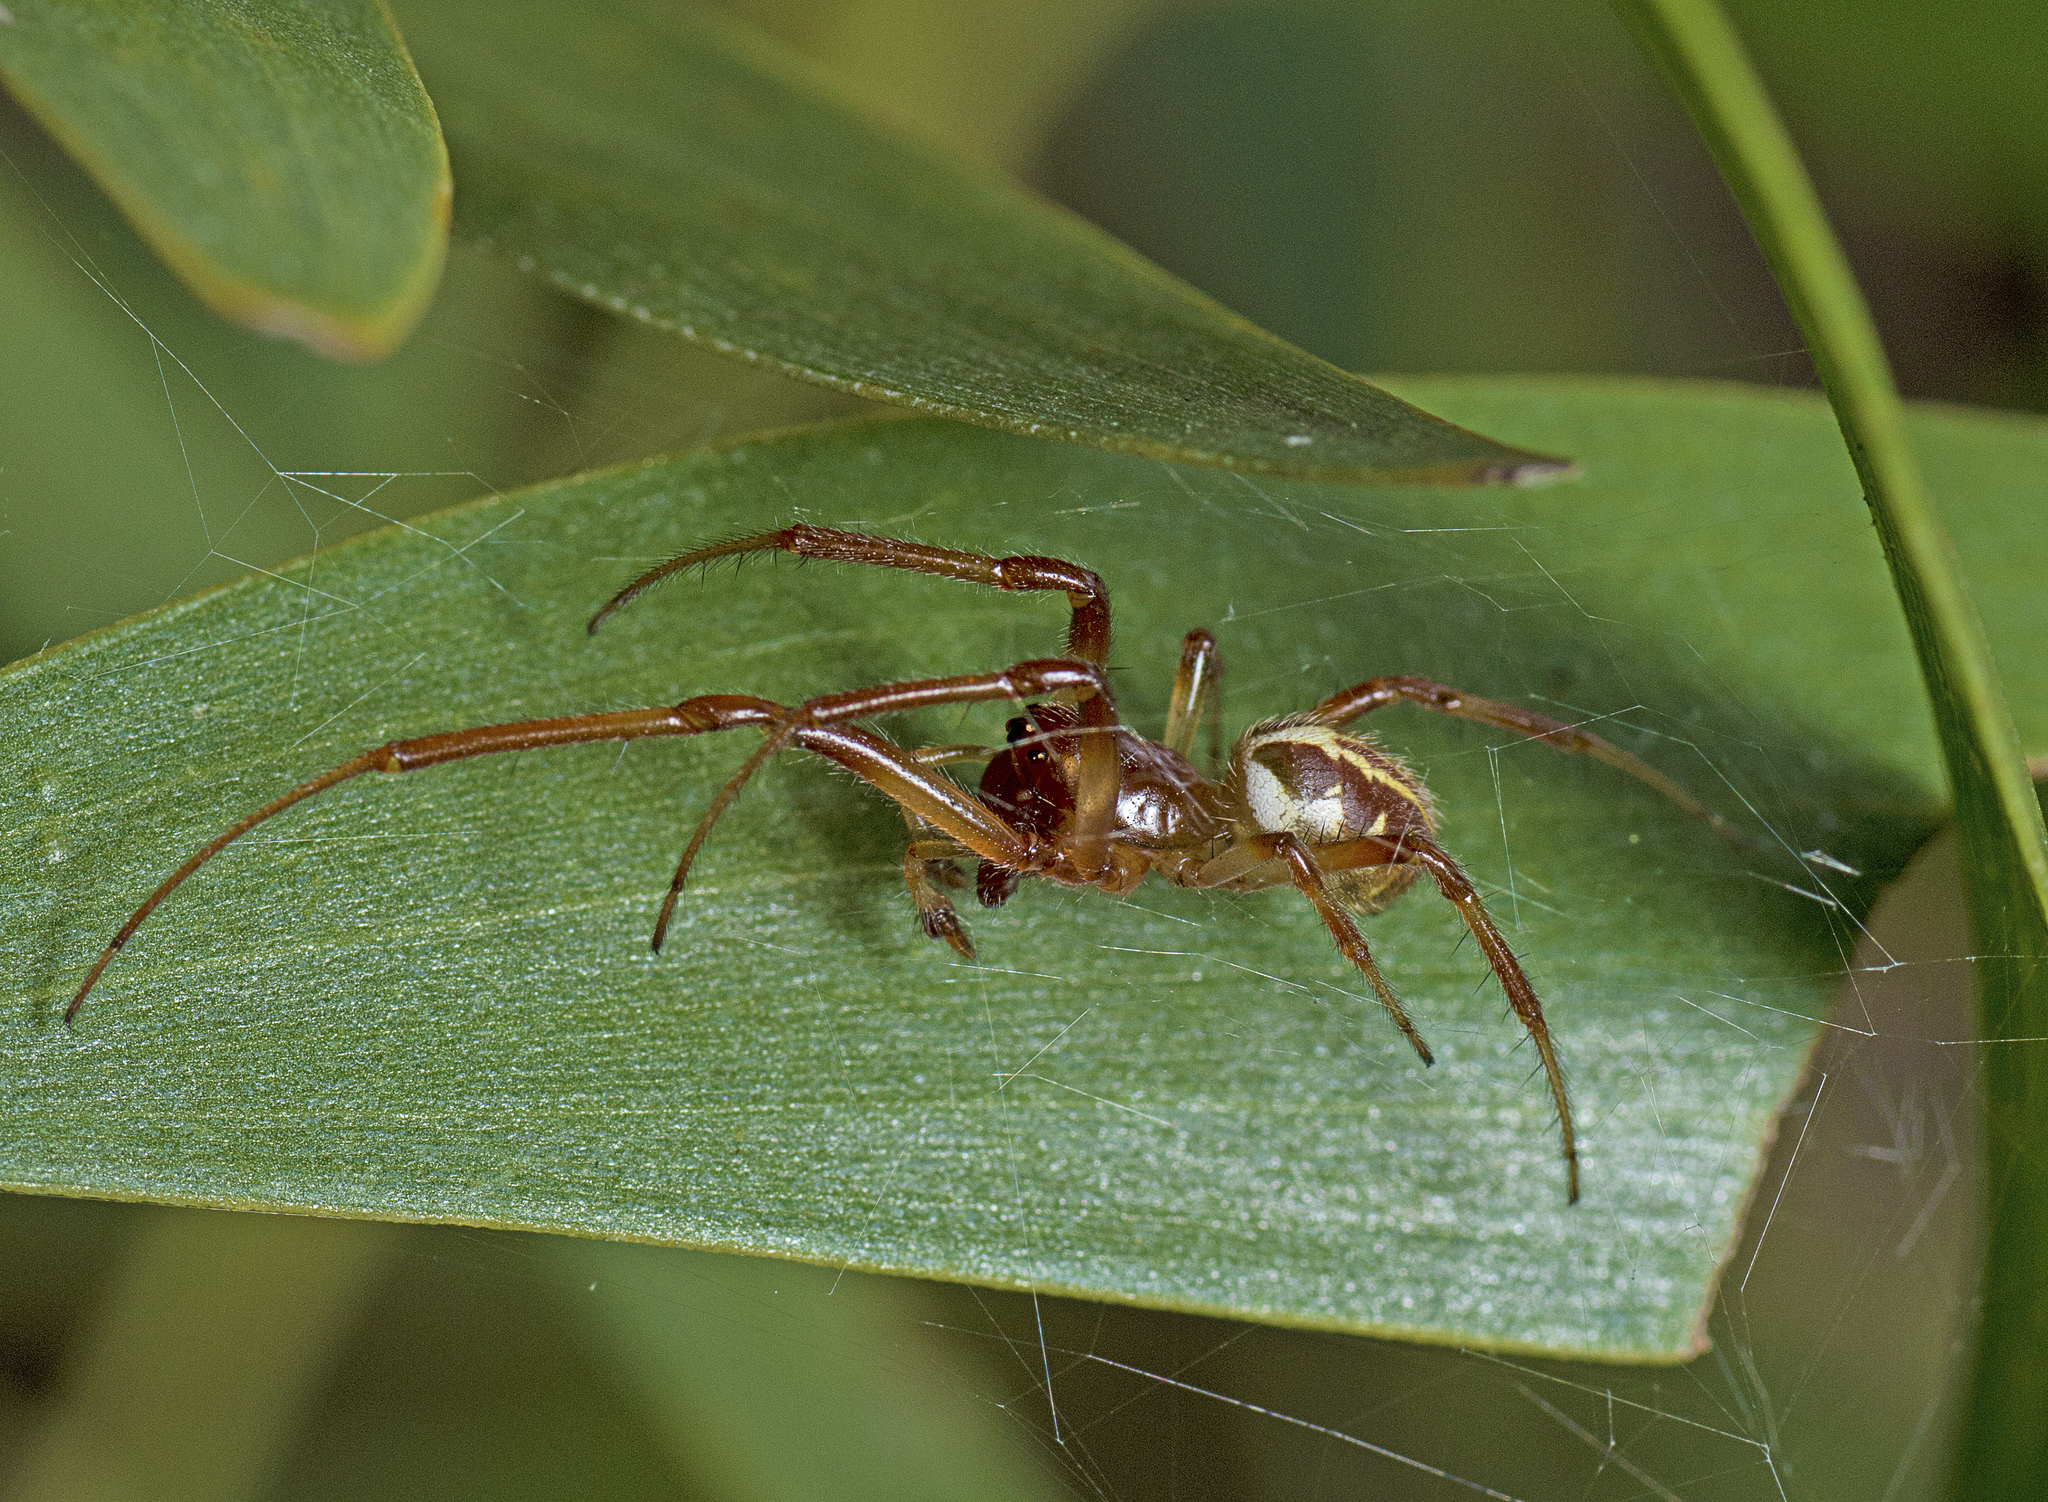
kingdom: Animalia
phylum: Arthropoda
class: Arachnida
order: Araneae
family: Araneidae
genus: Phonognatha
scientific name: Phonognatha graeffei
